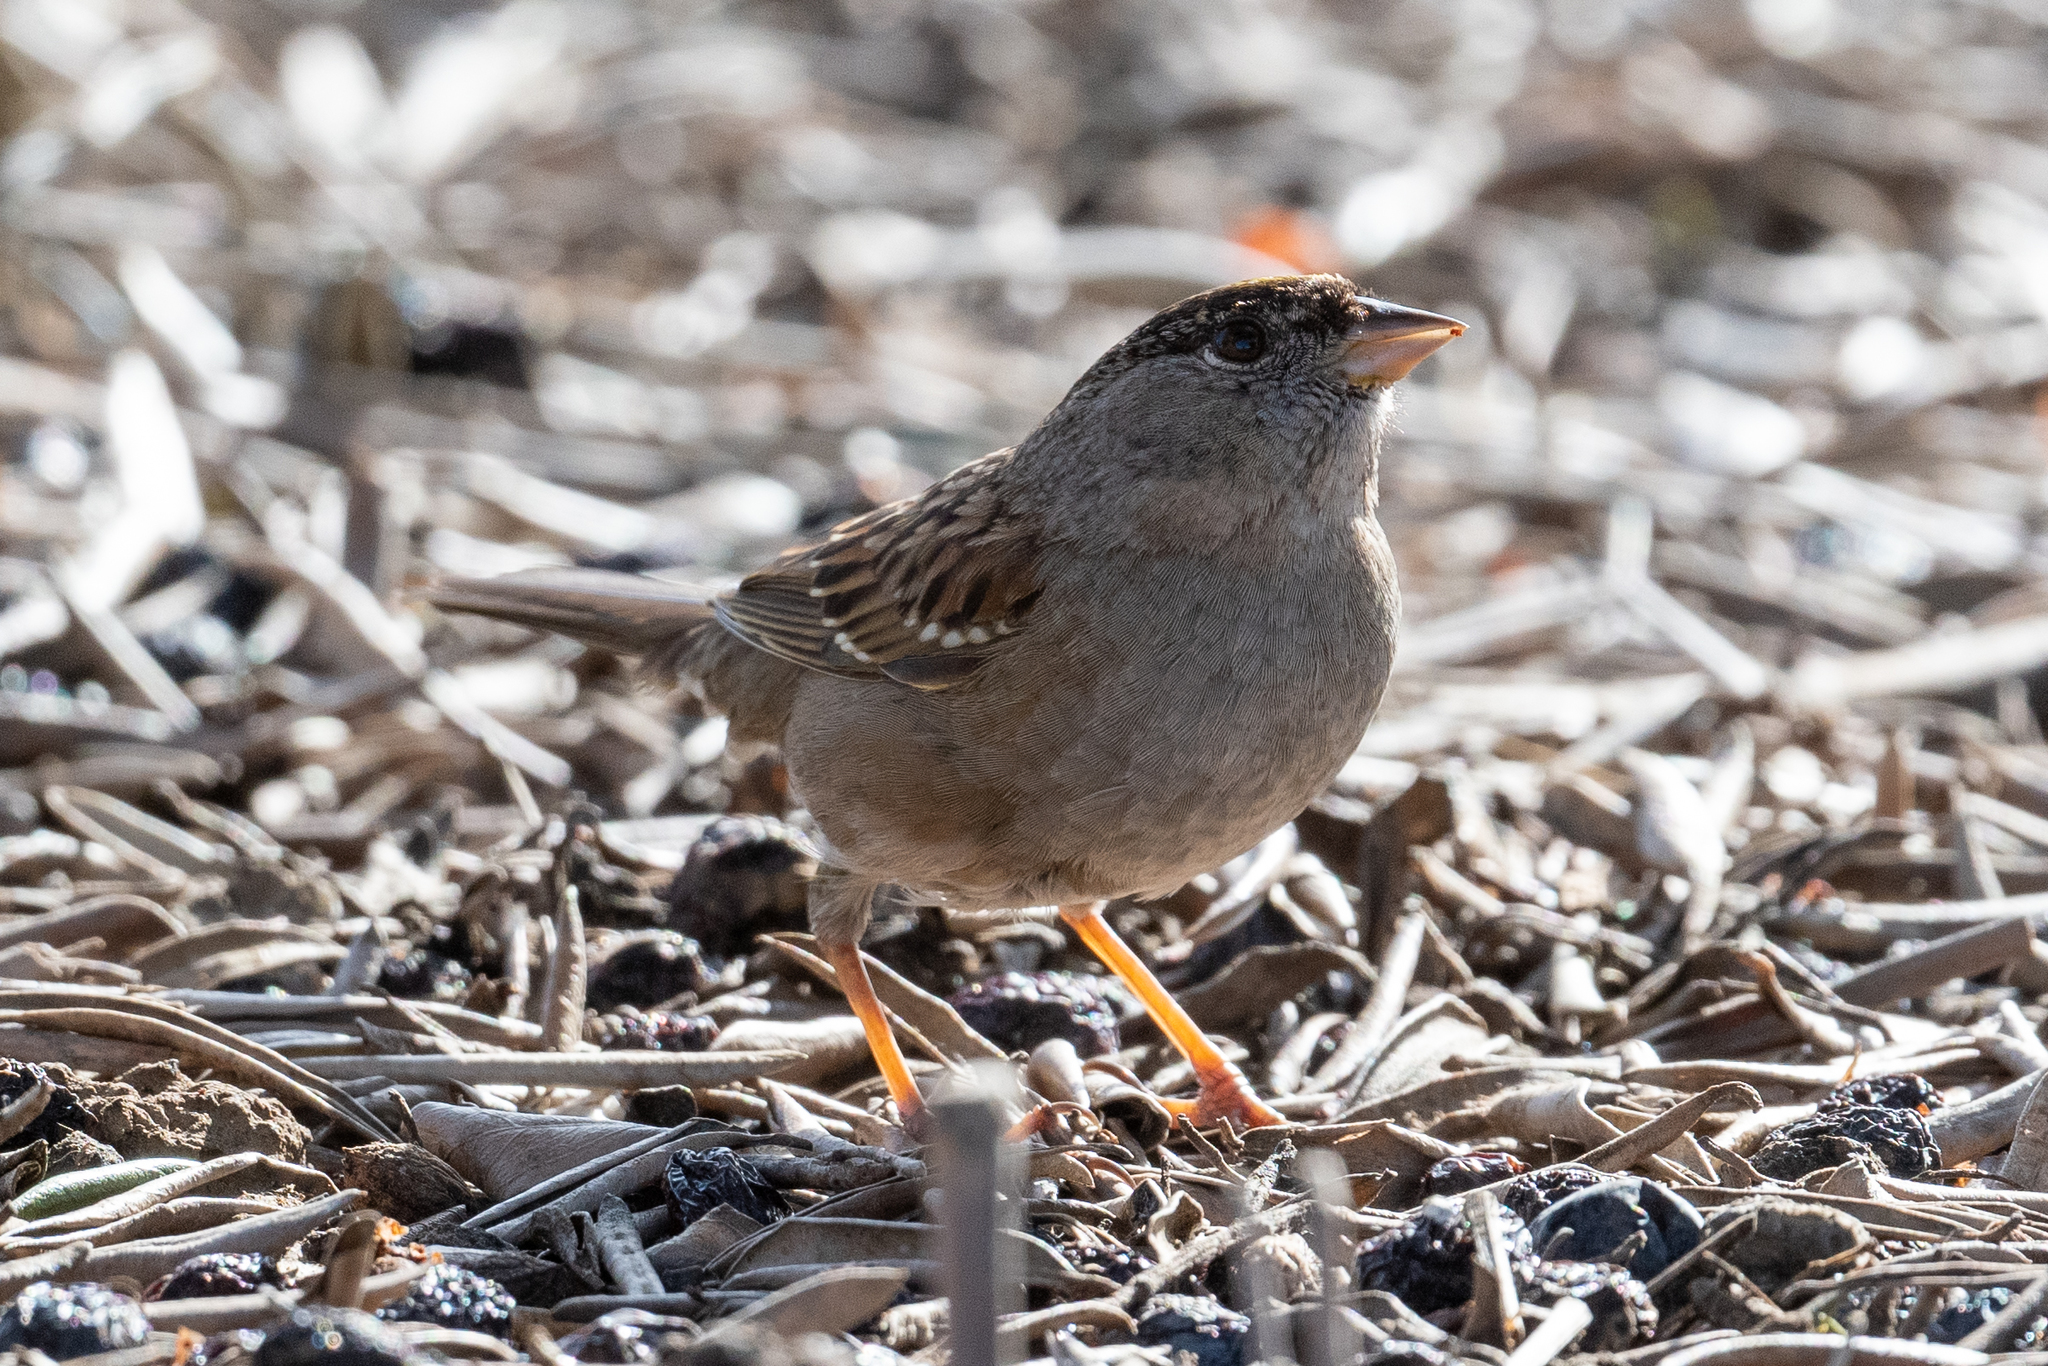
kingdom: Animalia
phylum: Chordata
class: Aves
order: Passeriformes
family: Passerellidae
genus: Zonotrichia
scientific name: Zonotrichia atricapilla
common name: Golden-crowned sparrow
